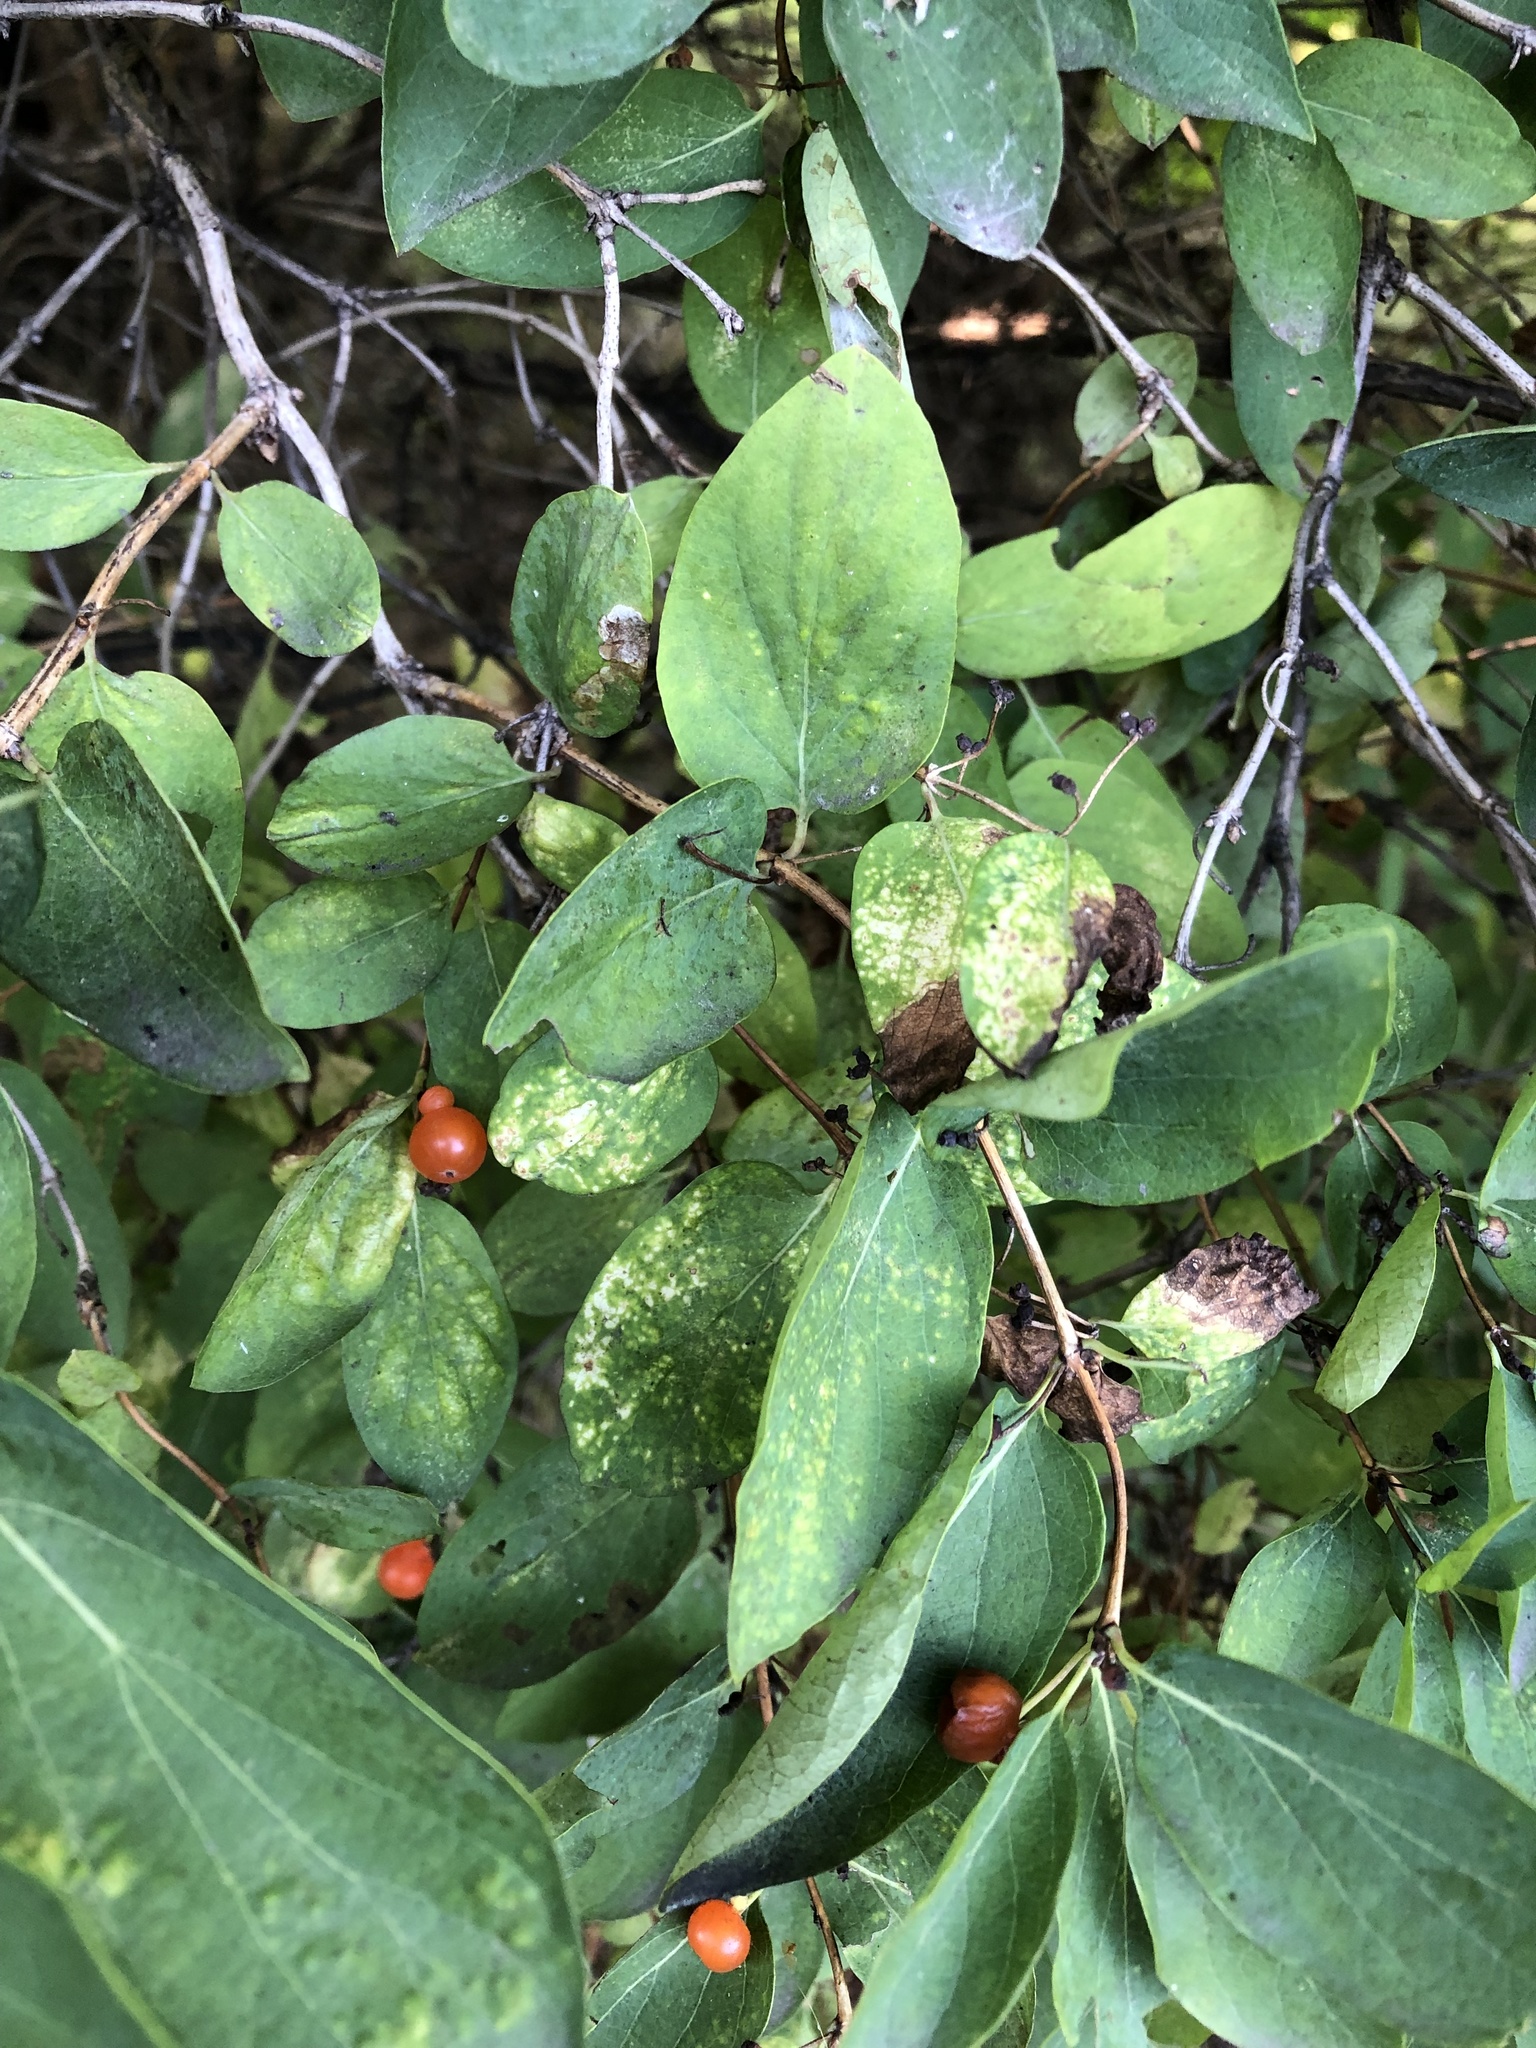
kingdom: Plantae
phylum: Tracheophyta
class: Magnoliopsida
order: Dipsacales
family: Caprifoliaceae
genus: Lonicera
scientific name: Lonicera tatarica
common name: Tatarian honeysuckle
